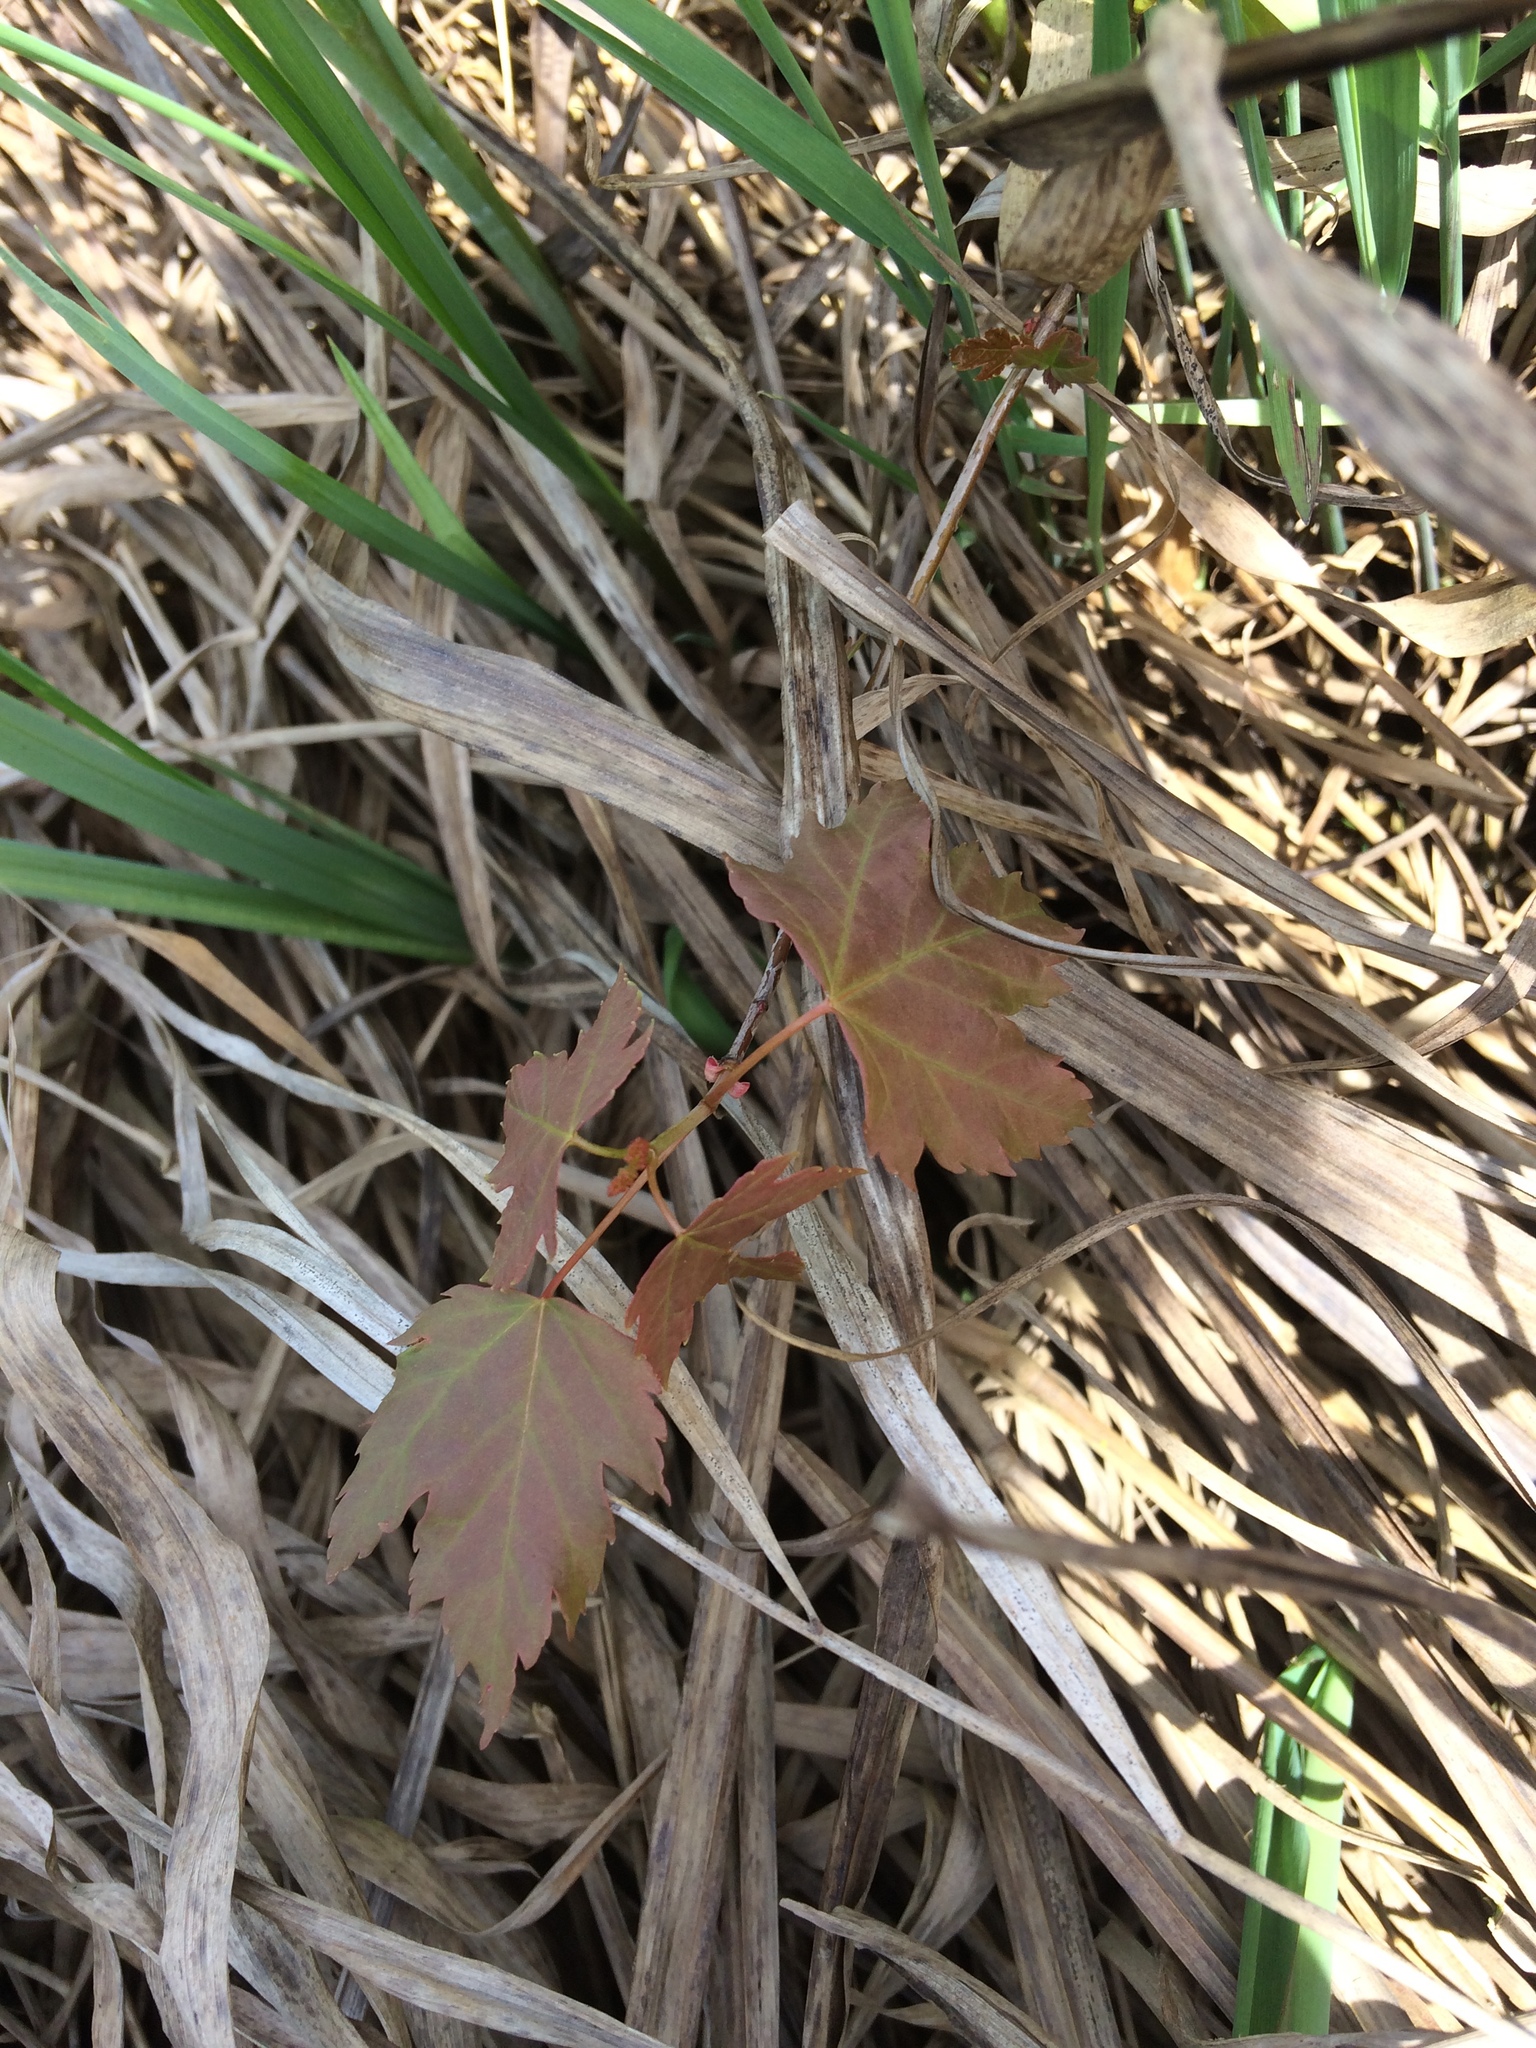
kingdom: Plantae
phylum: Tracheophyta
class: Magnoliopsida
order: Sapindales
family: Sapindaceae
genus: Acer
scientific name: Acer rubrum
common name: Red maple
